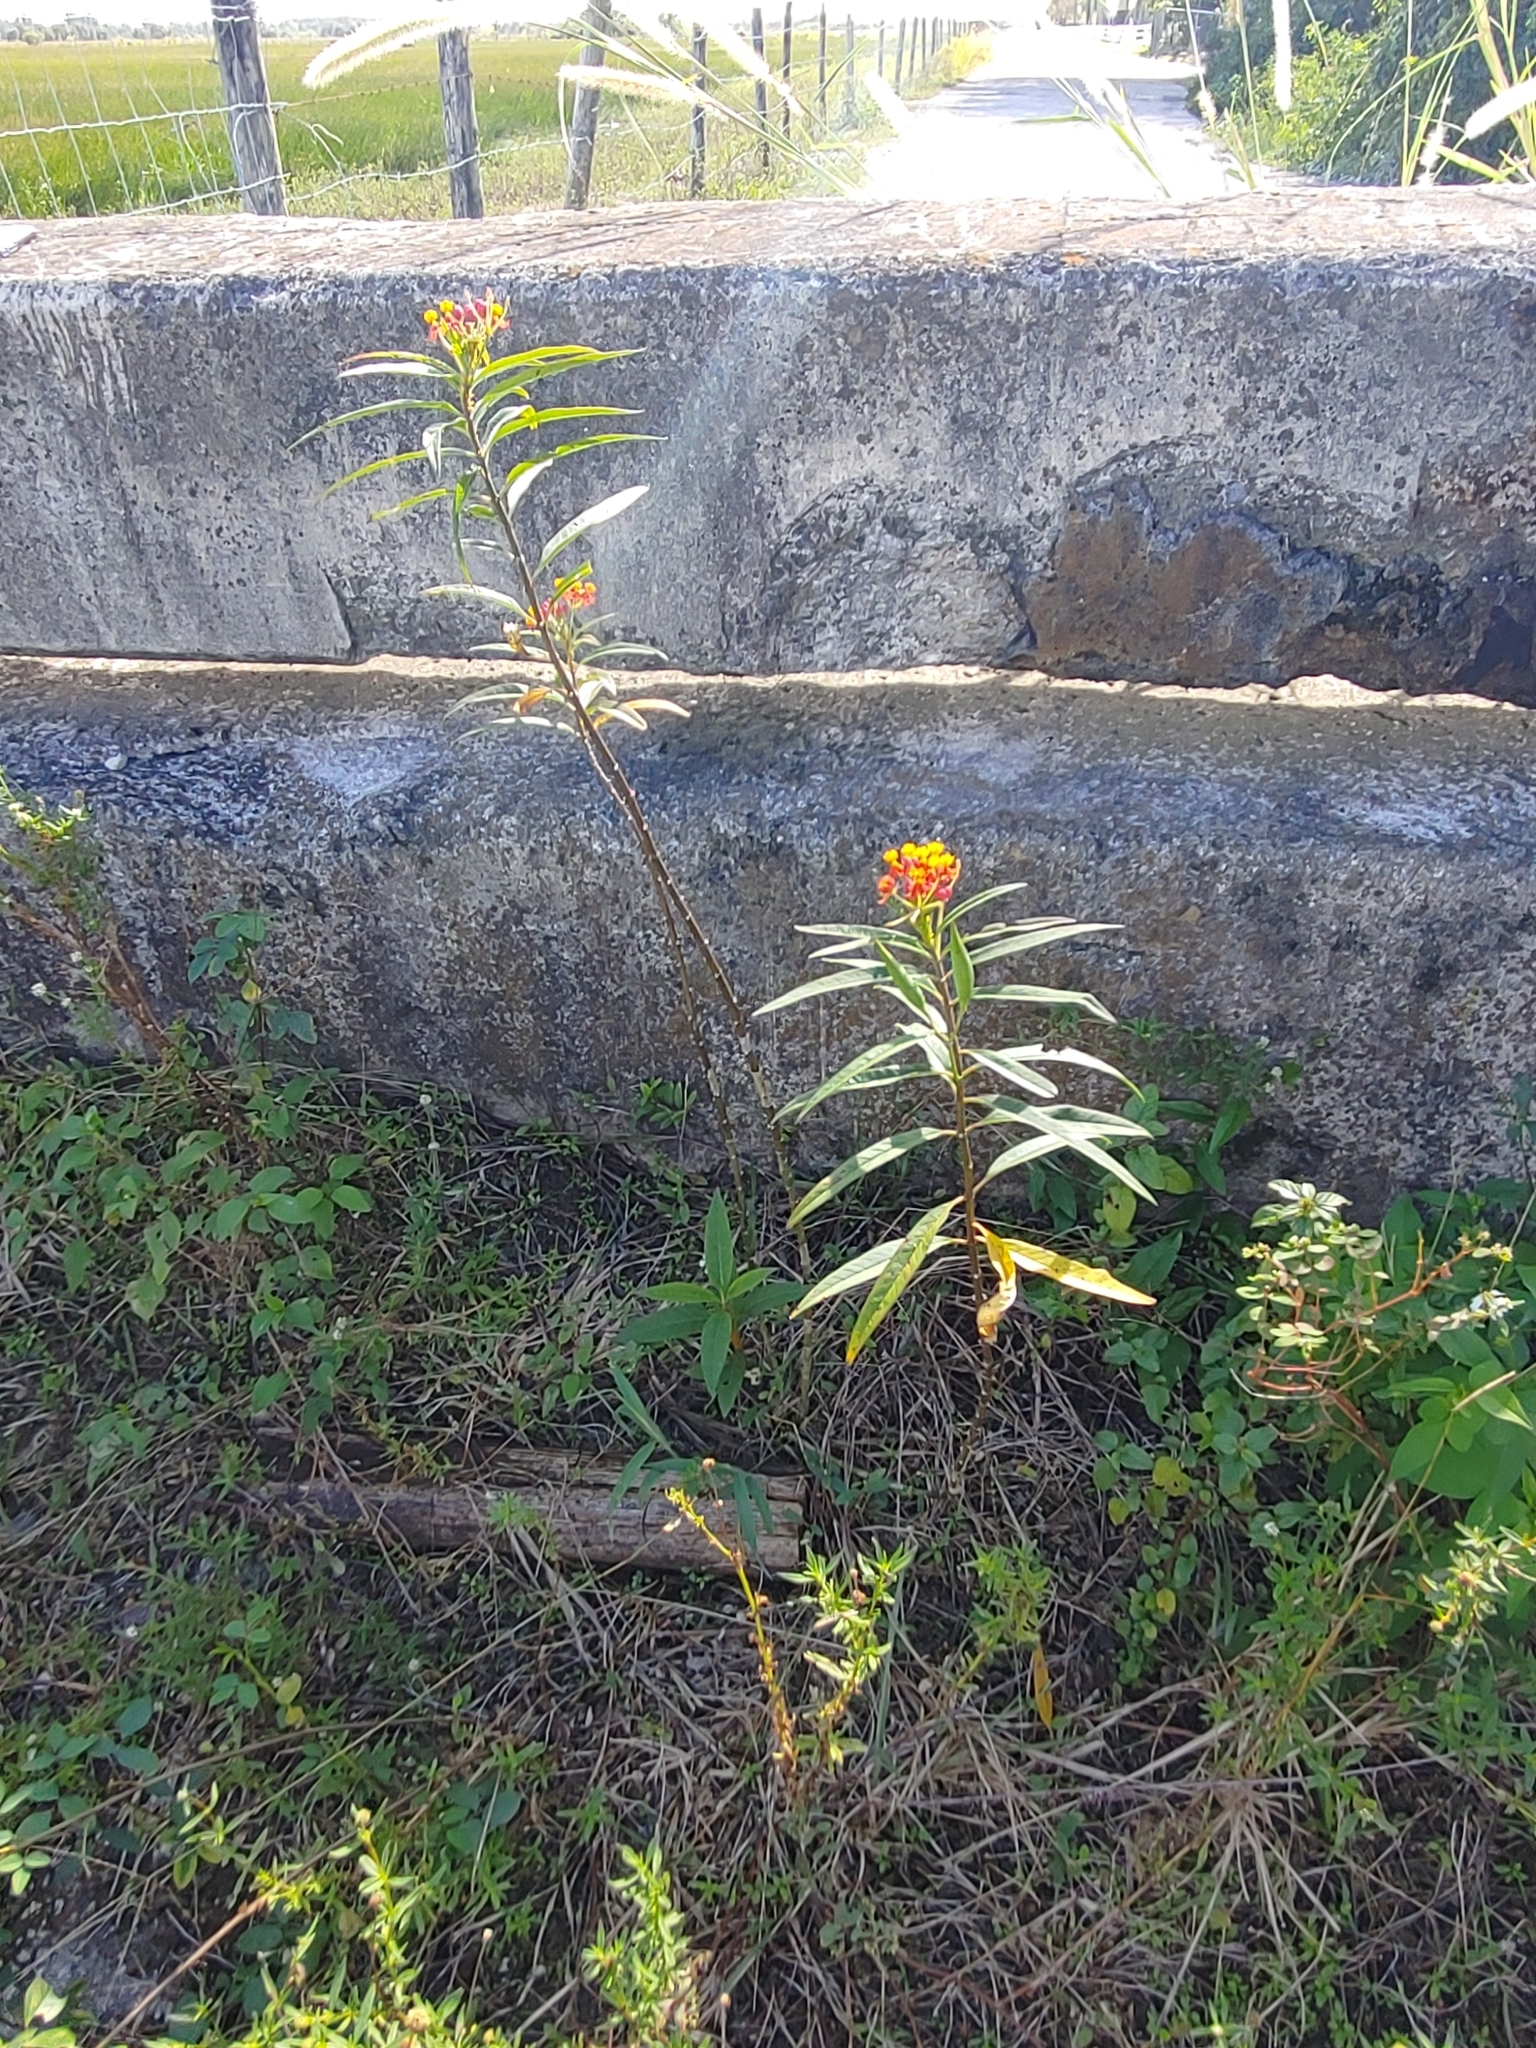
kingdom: Plantae
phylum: Tracheophyta
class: Magnoliopsida
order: Gentianales
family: Apocynaceae
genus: Asclepias
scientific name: Asclepias curassavica
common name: Bloodflower
